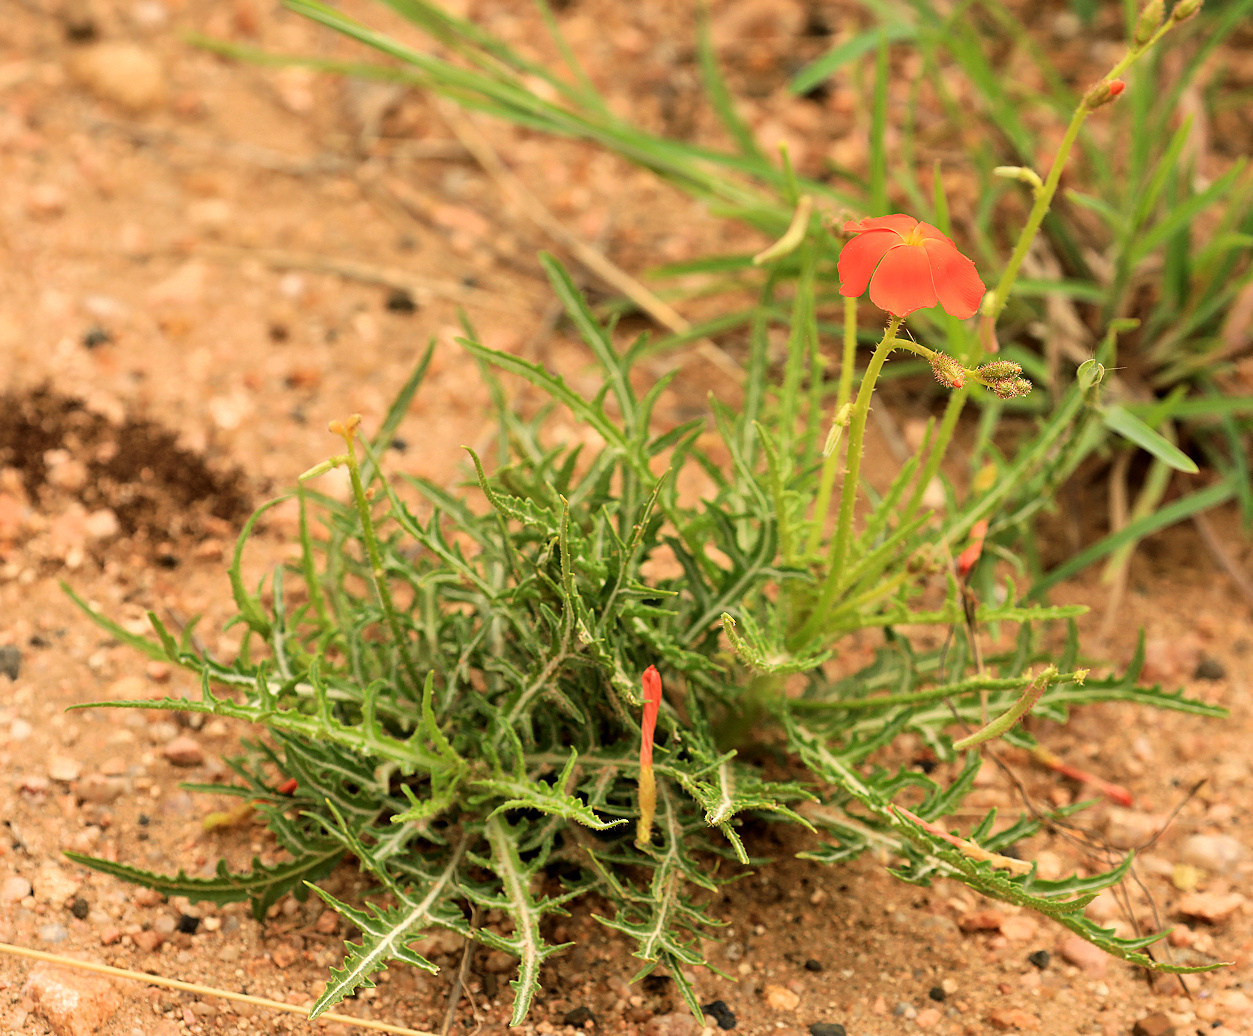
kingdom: Plantae
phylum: Tracheophyta
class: Magnoliopsida
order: Malpighiales
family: Turneraceae
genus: Tricliceras
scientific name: Tricliceras lacerata
